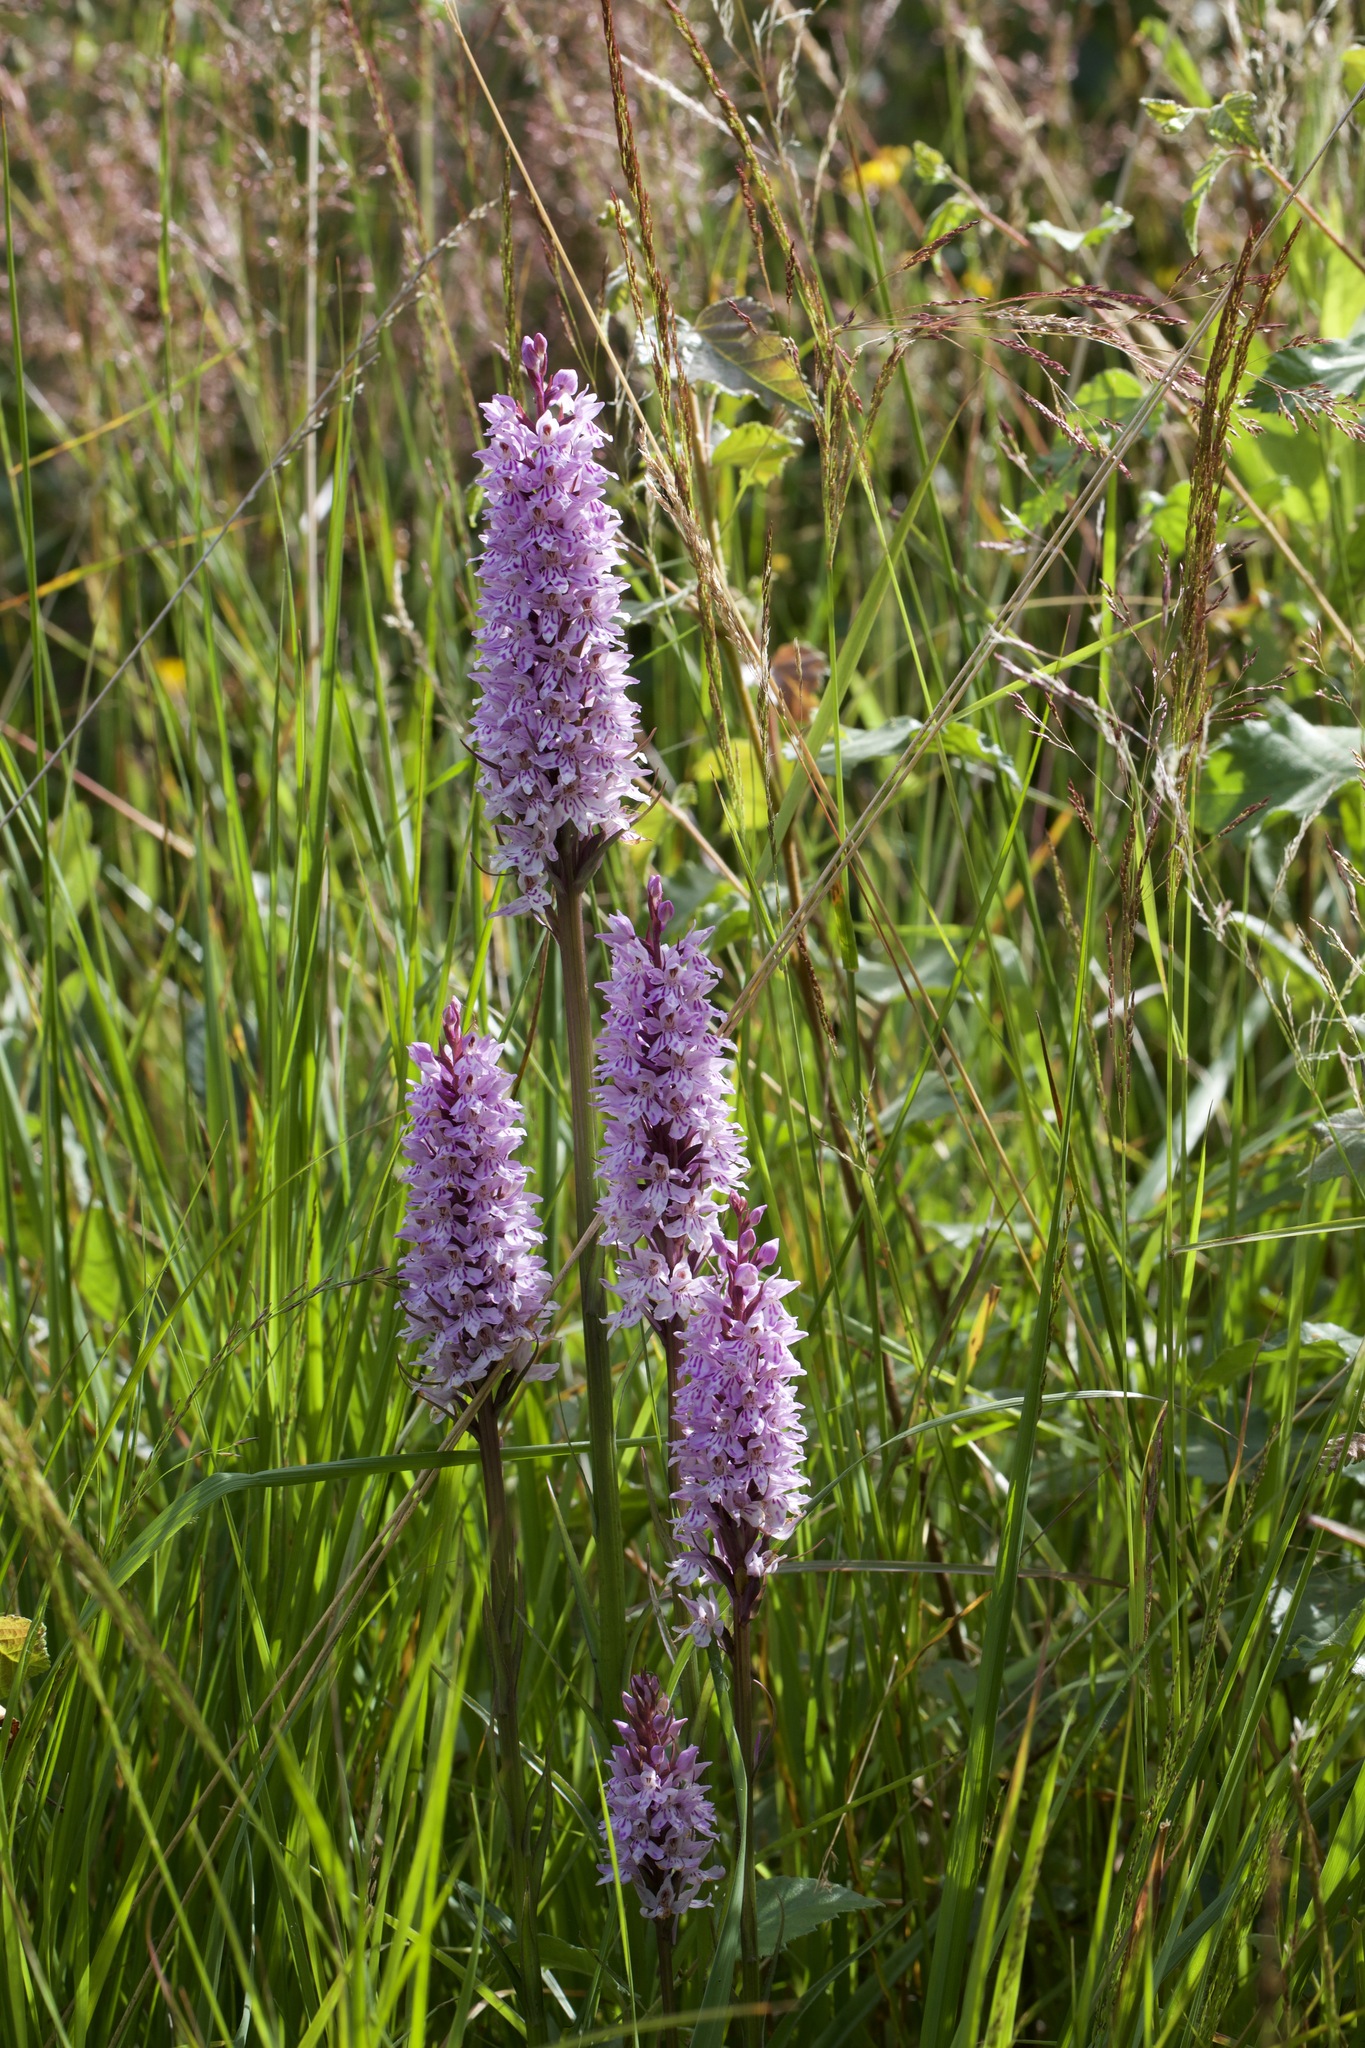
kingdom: Plantae
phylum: Tracheophyta
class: Liliopsida
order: Asparagales
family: Orchidaceae
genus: Dactylorhiza
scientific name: Dactylorhiza maculata
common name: Heath spotted-orchid
